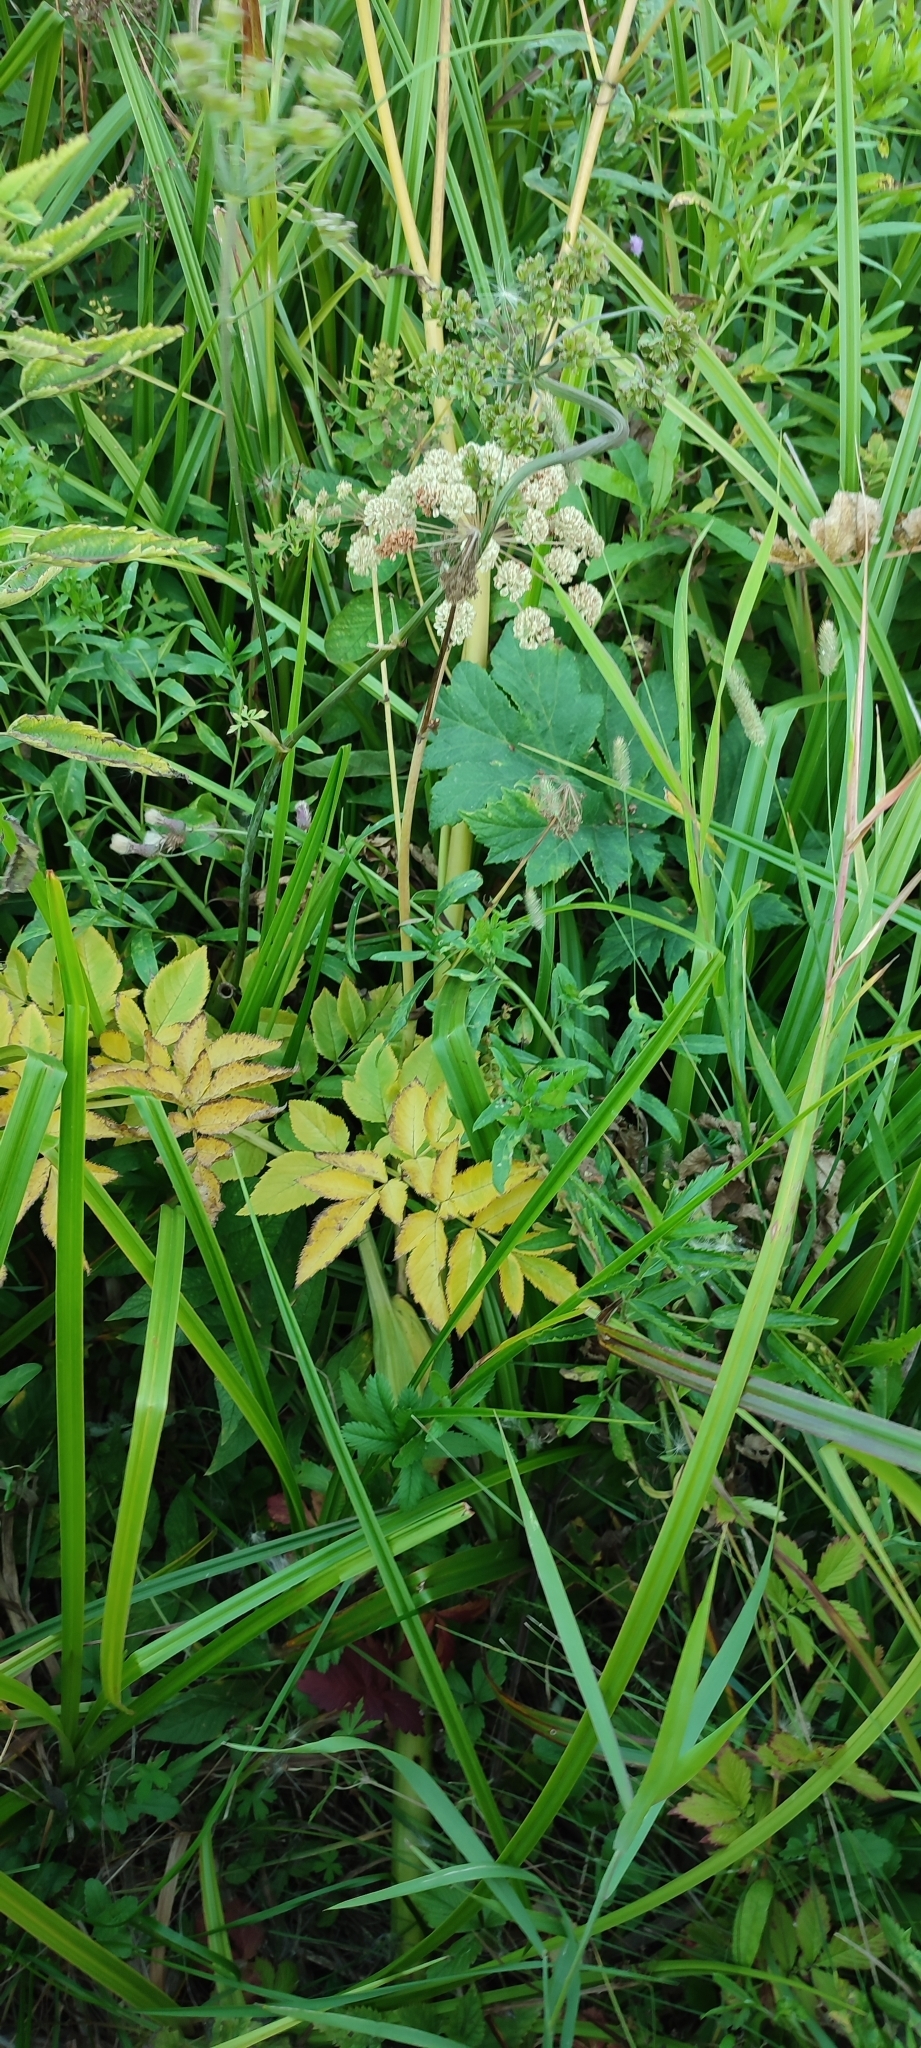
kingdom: Plantae
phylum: Tracheophyta
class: Magnoliopsida
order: Apiales
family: Apiaceae
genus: Angelica
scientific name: Angelica sylvestris
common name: Wild angelica
